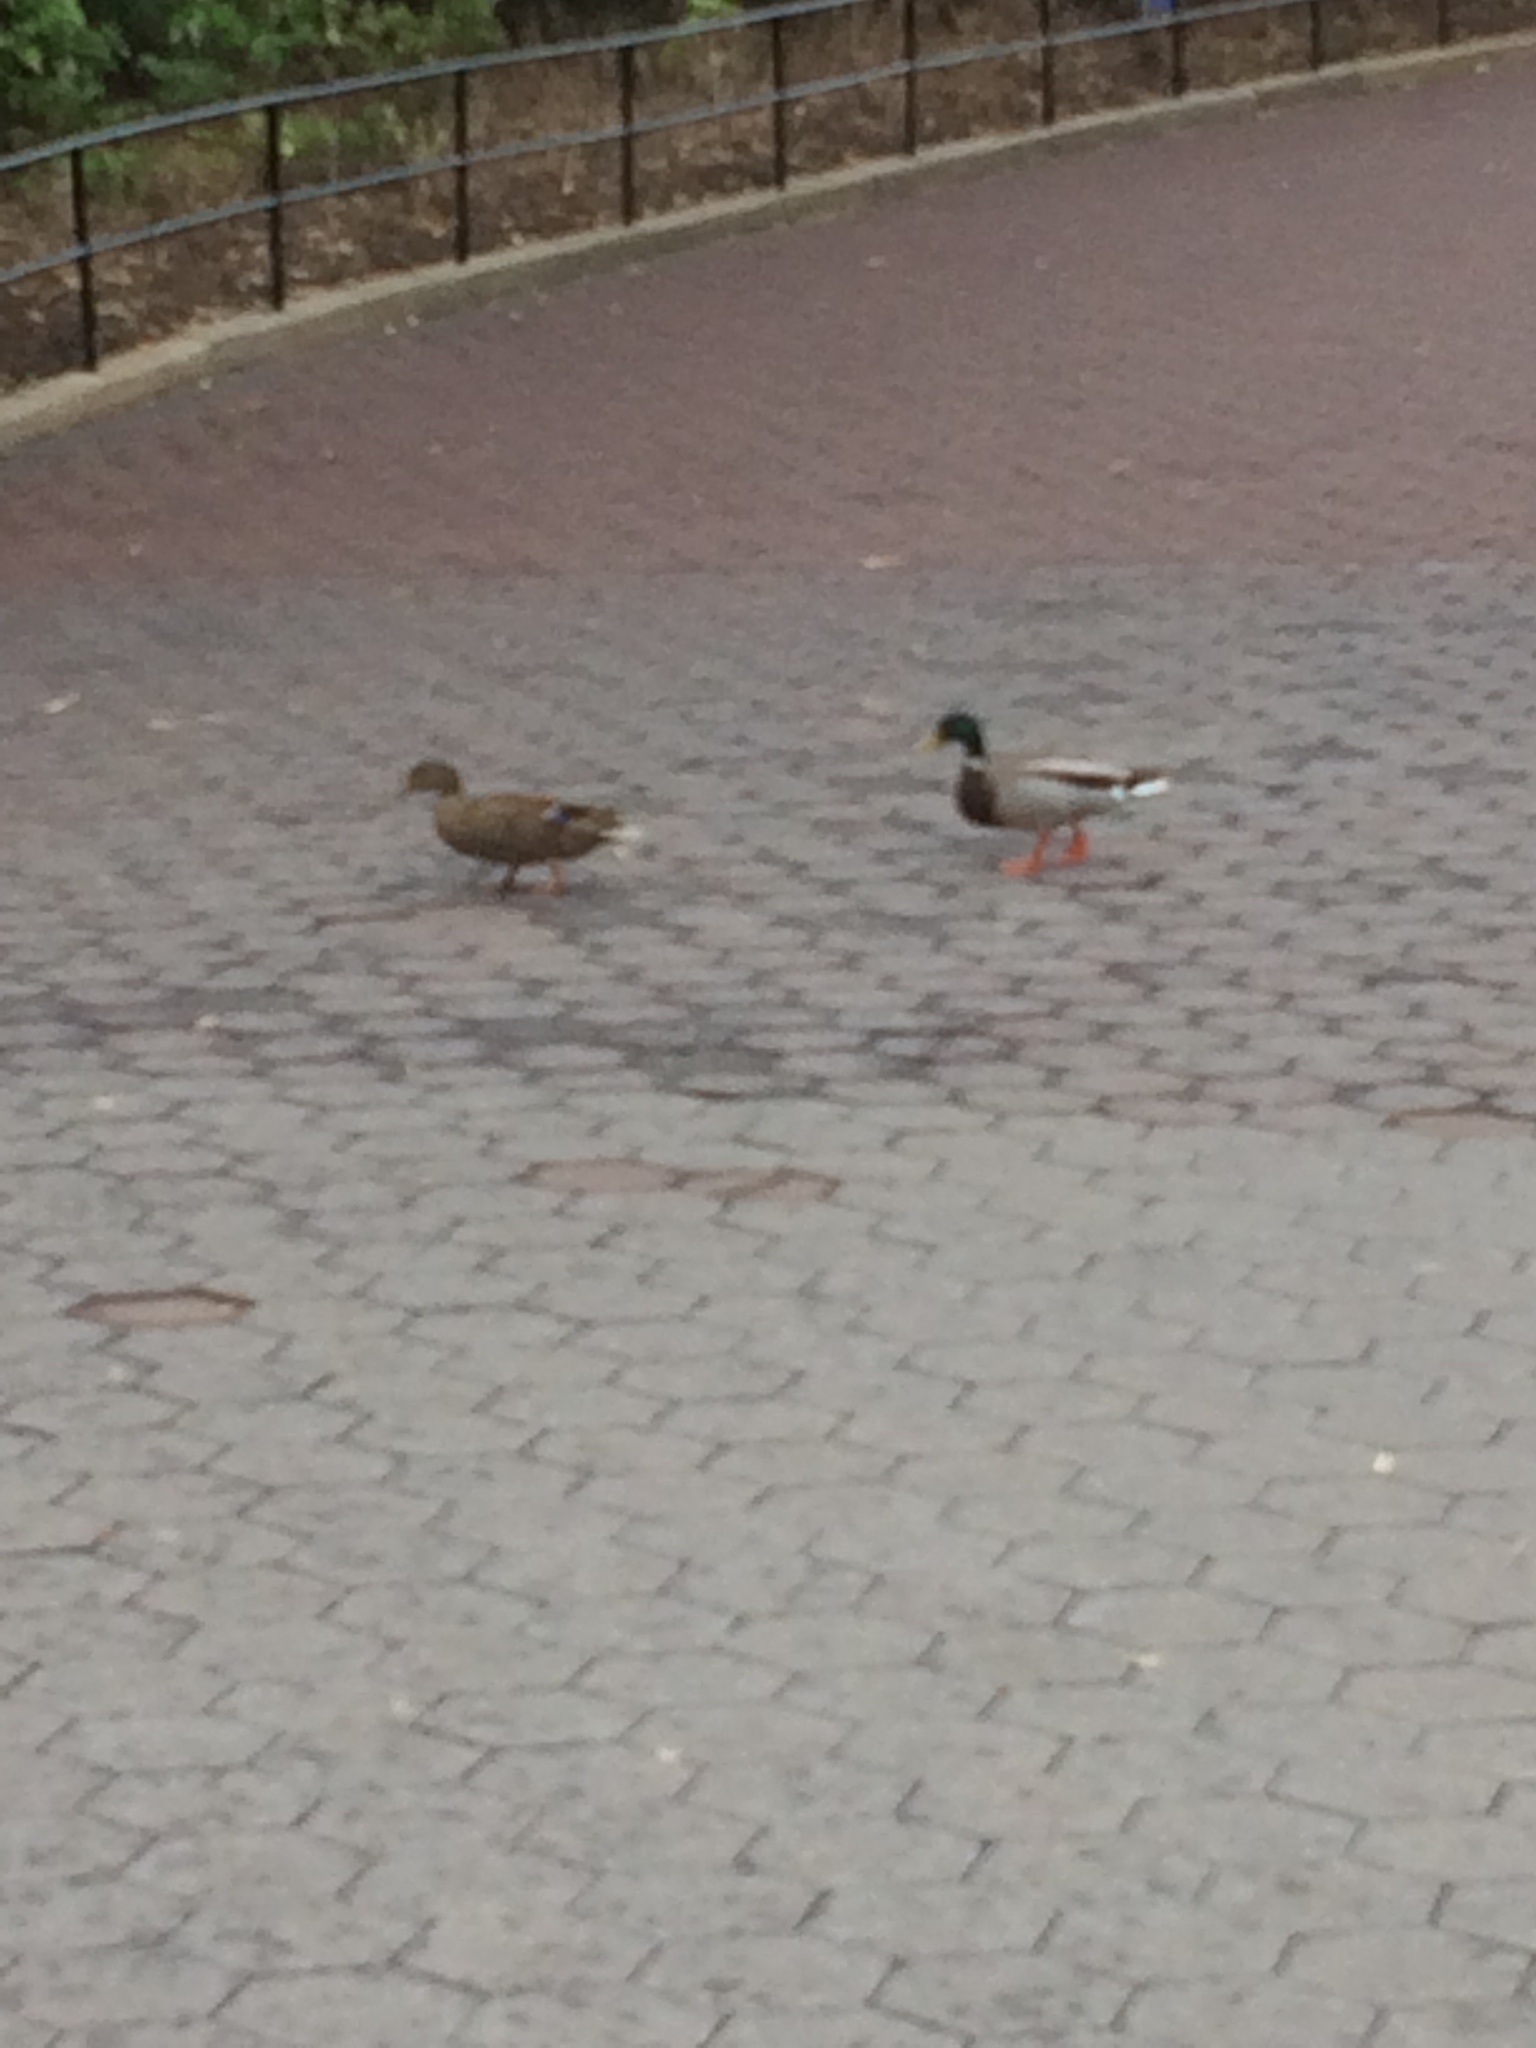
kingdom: Animalia
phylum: Chordata
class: Aves
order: Anseriformes
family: Anatidae
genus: Anas
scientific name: Anas platyrhynchos
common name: Mallard
